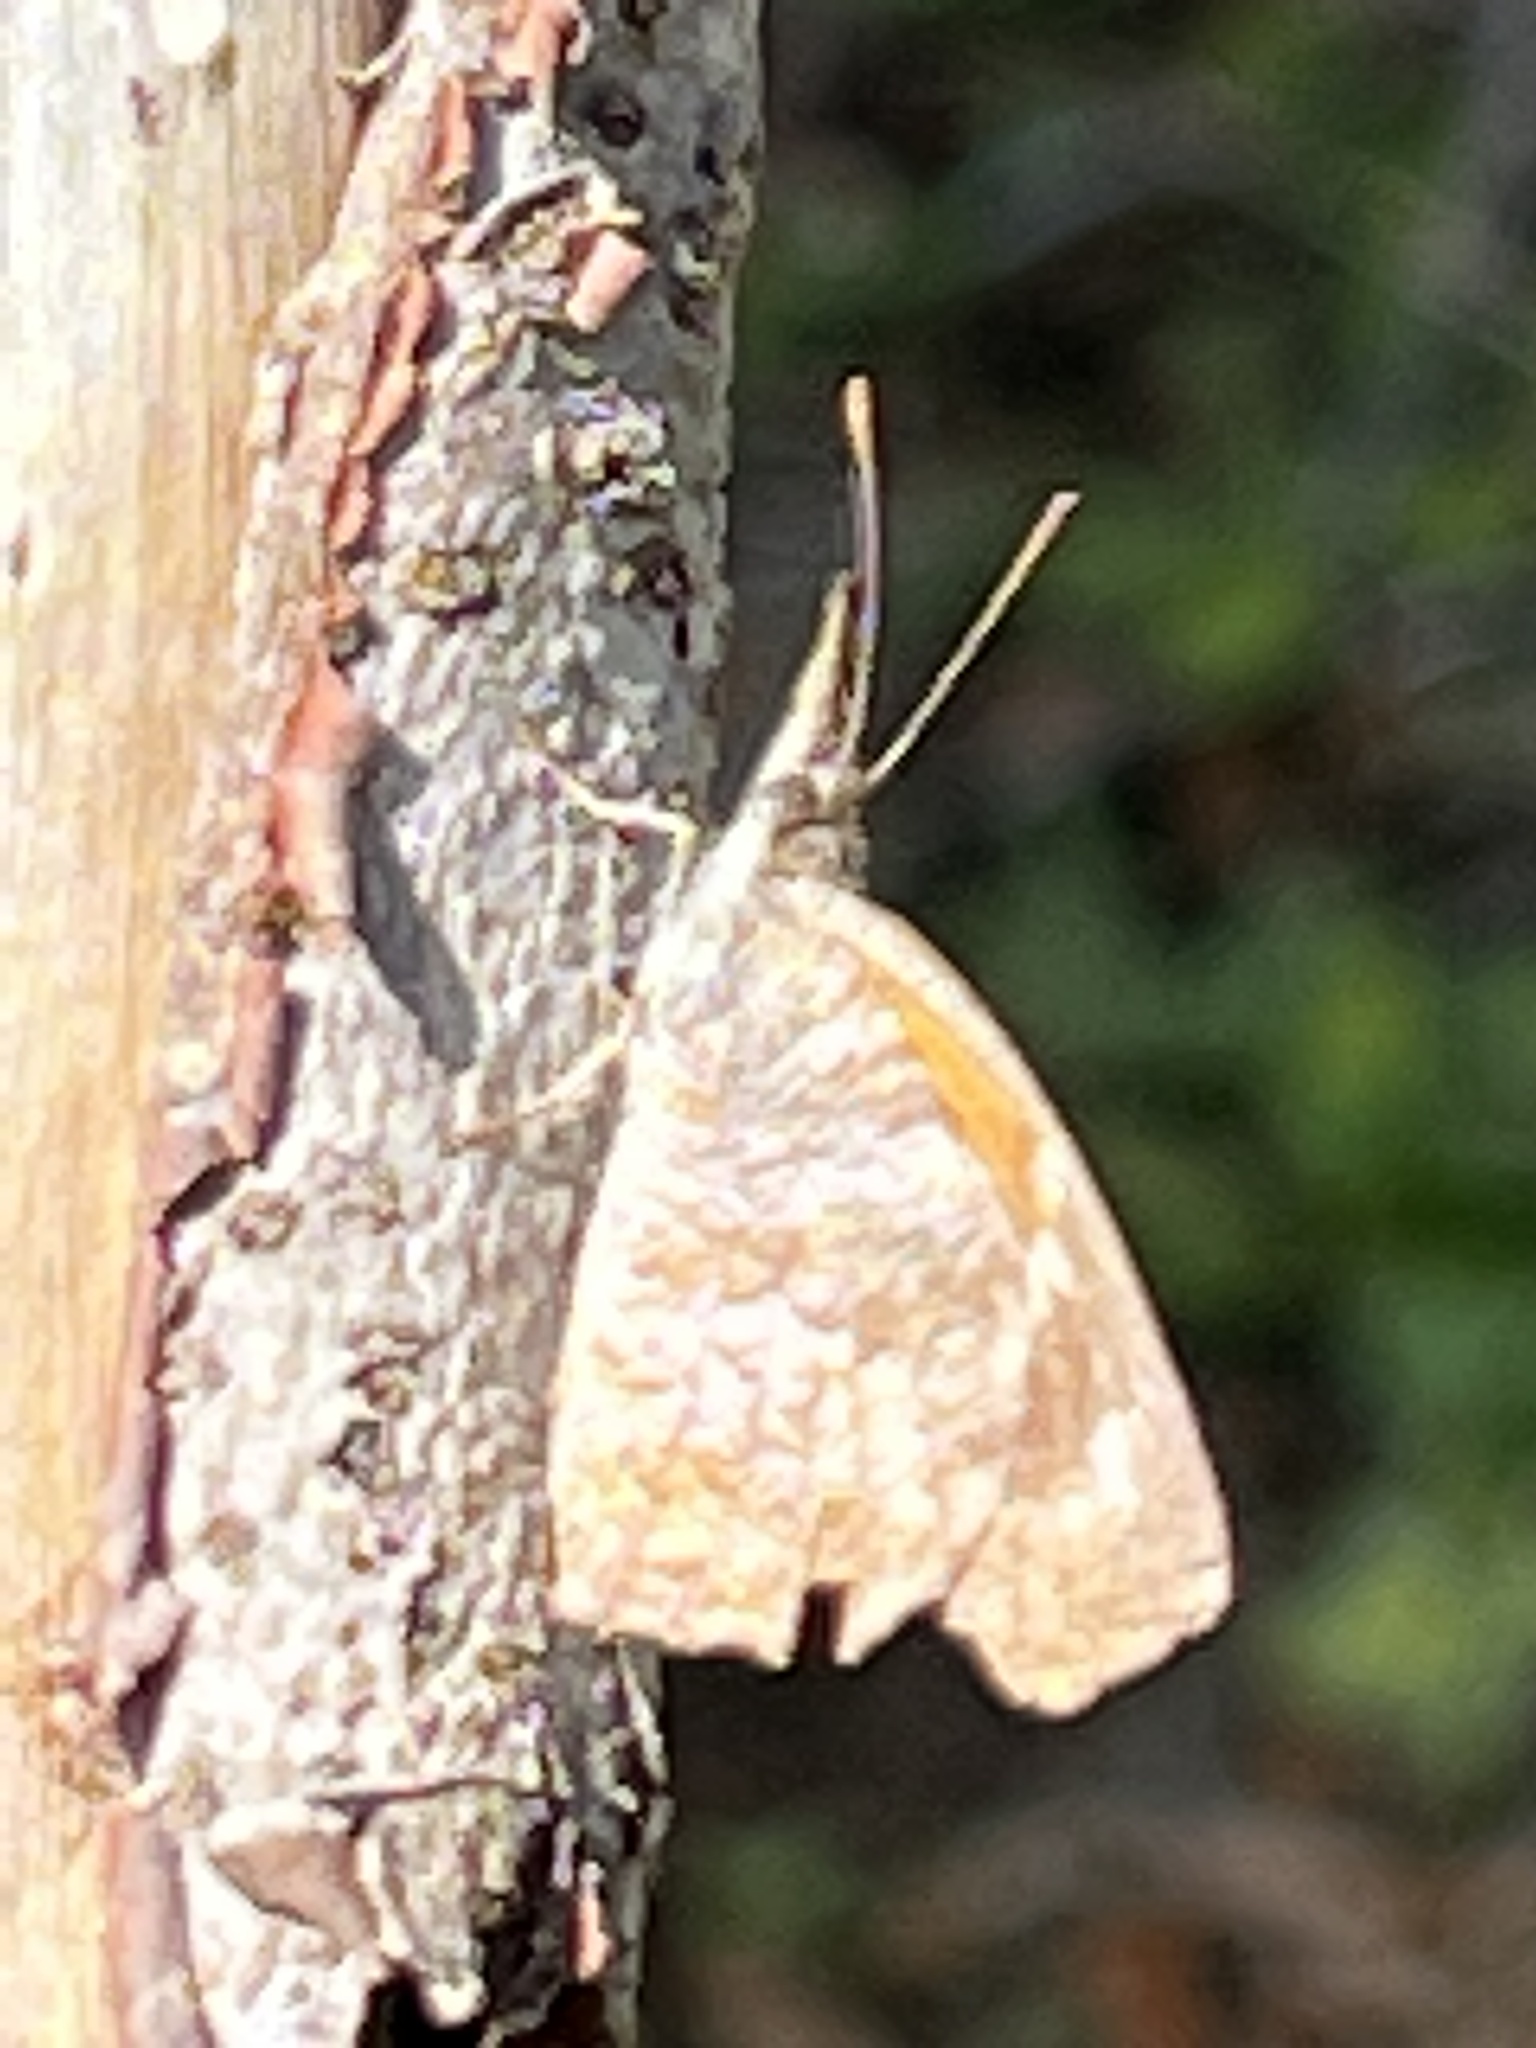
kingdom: Animalia
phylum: Arthropoda
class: Insecta
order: Lepidoptera
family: Nymphalidae
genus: Libytheana
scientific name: Libytheana carinenta
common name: American snout
